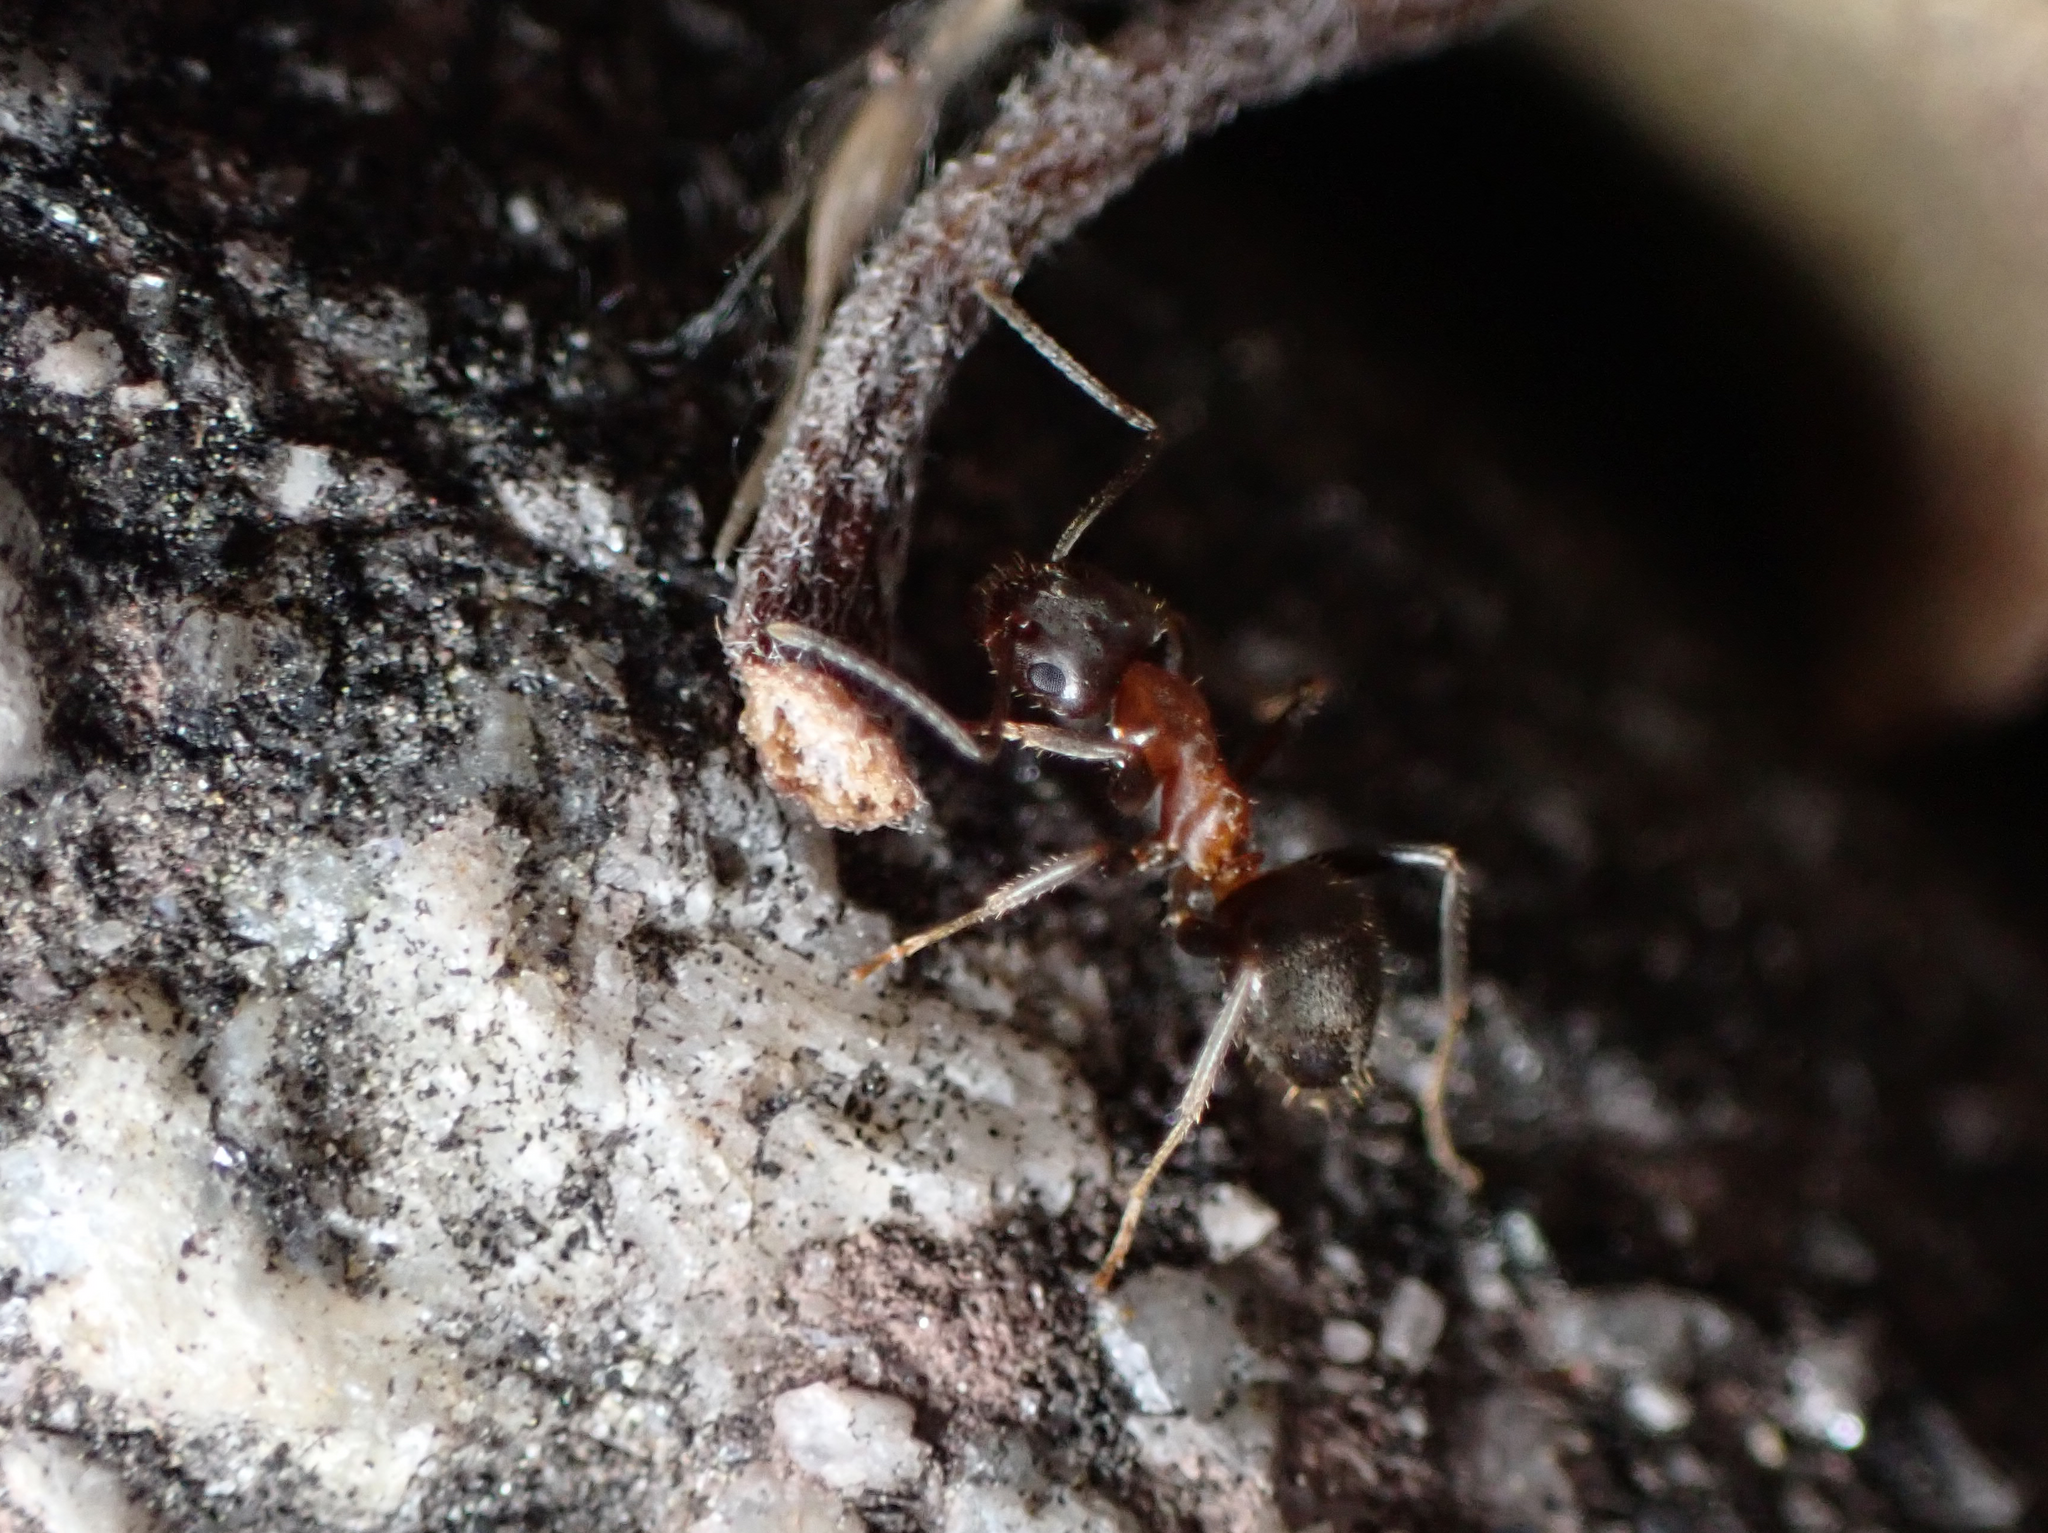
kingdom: Animalia
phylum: Arthropoda
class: Insecta
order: Hymenoptera
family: Formicidae
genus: Lasius
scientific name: Lasius emarginatus
